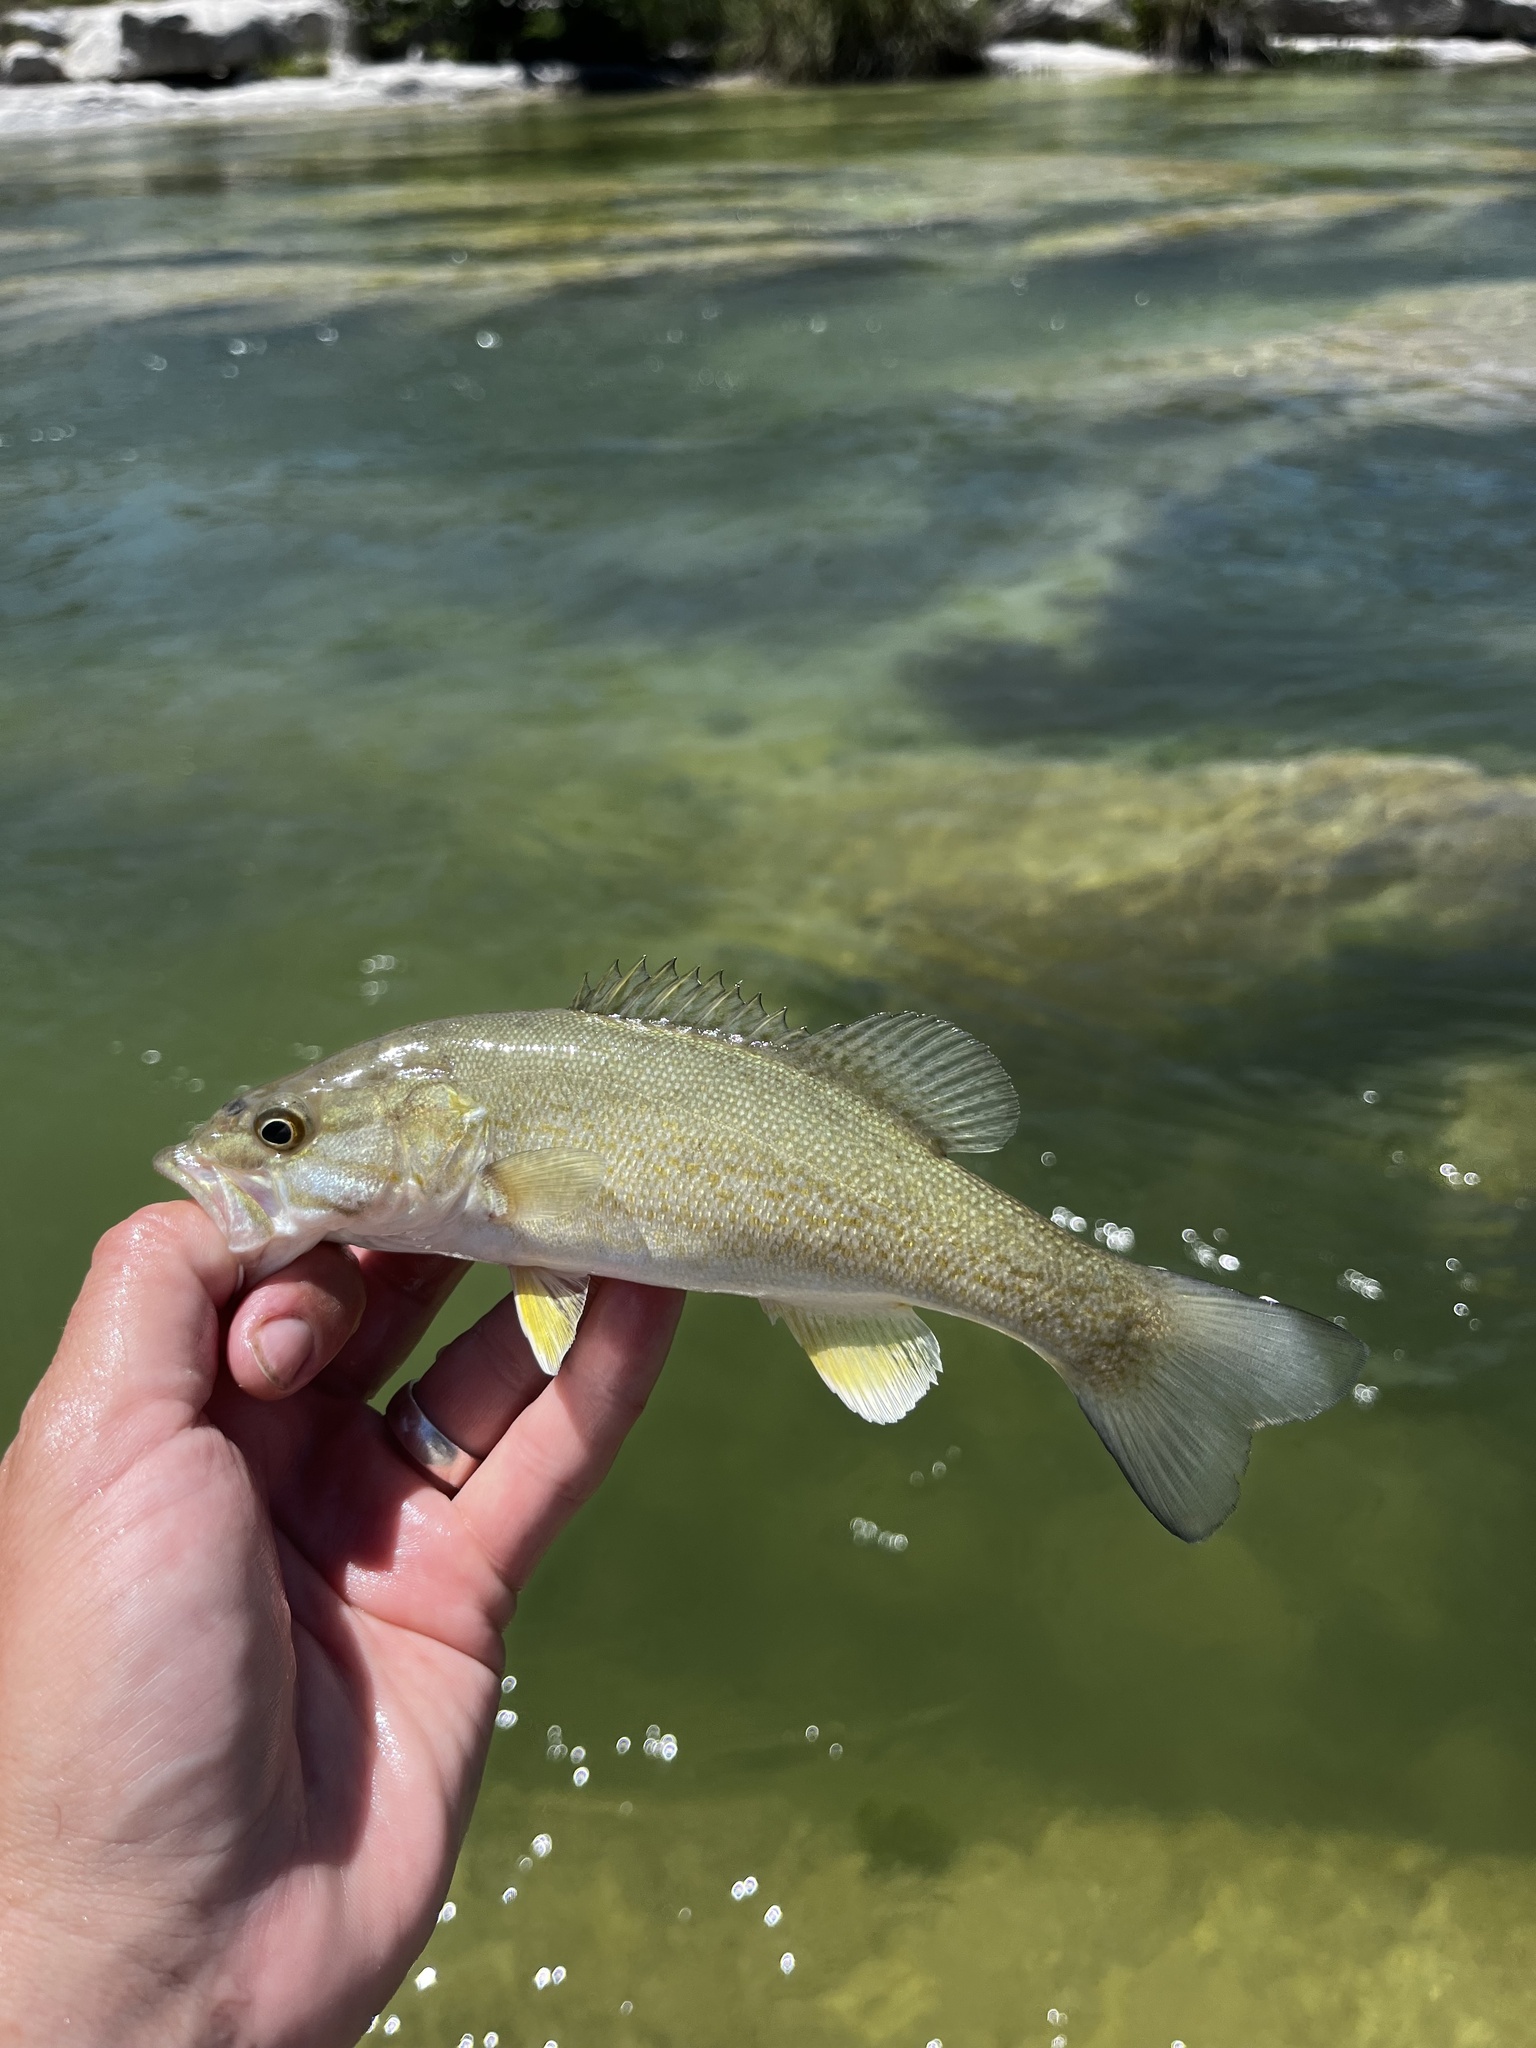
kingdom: Animalia
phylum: Chordata
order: Perciformes
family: Centrarchidae
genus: Micropterus
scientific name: Micropterus dolomieu
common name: Smallmouth bass
